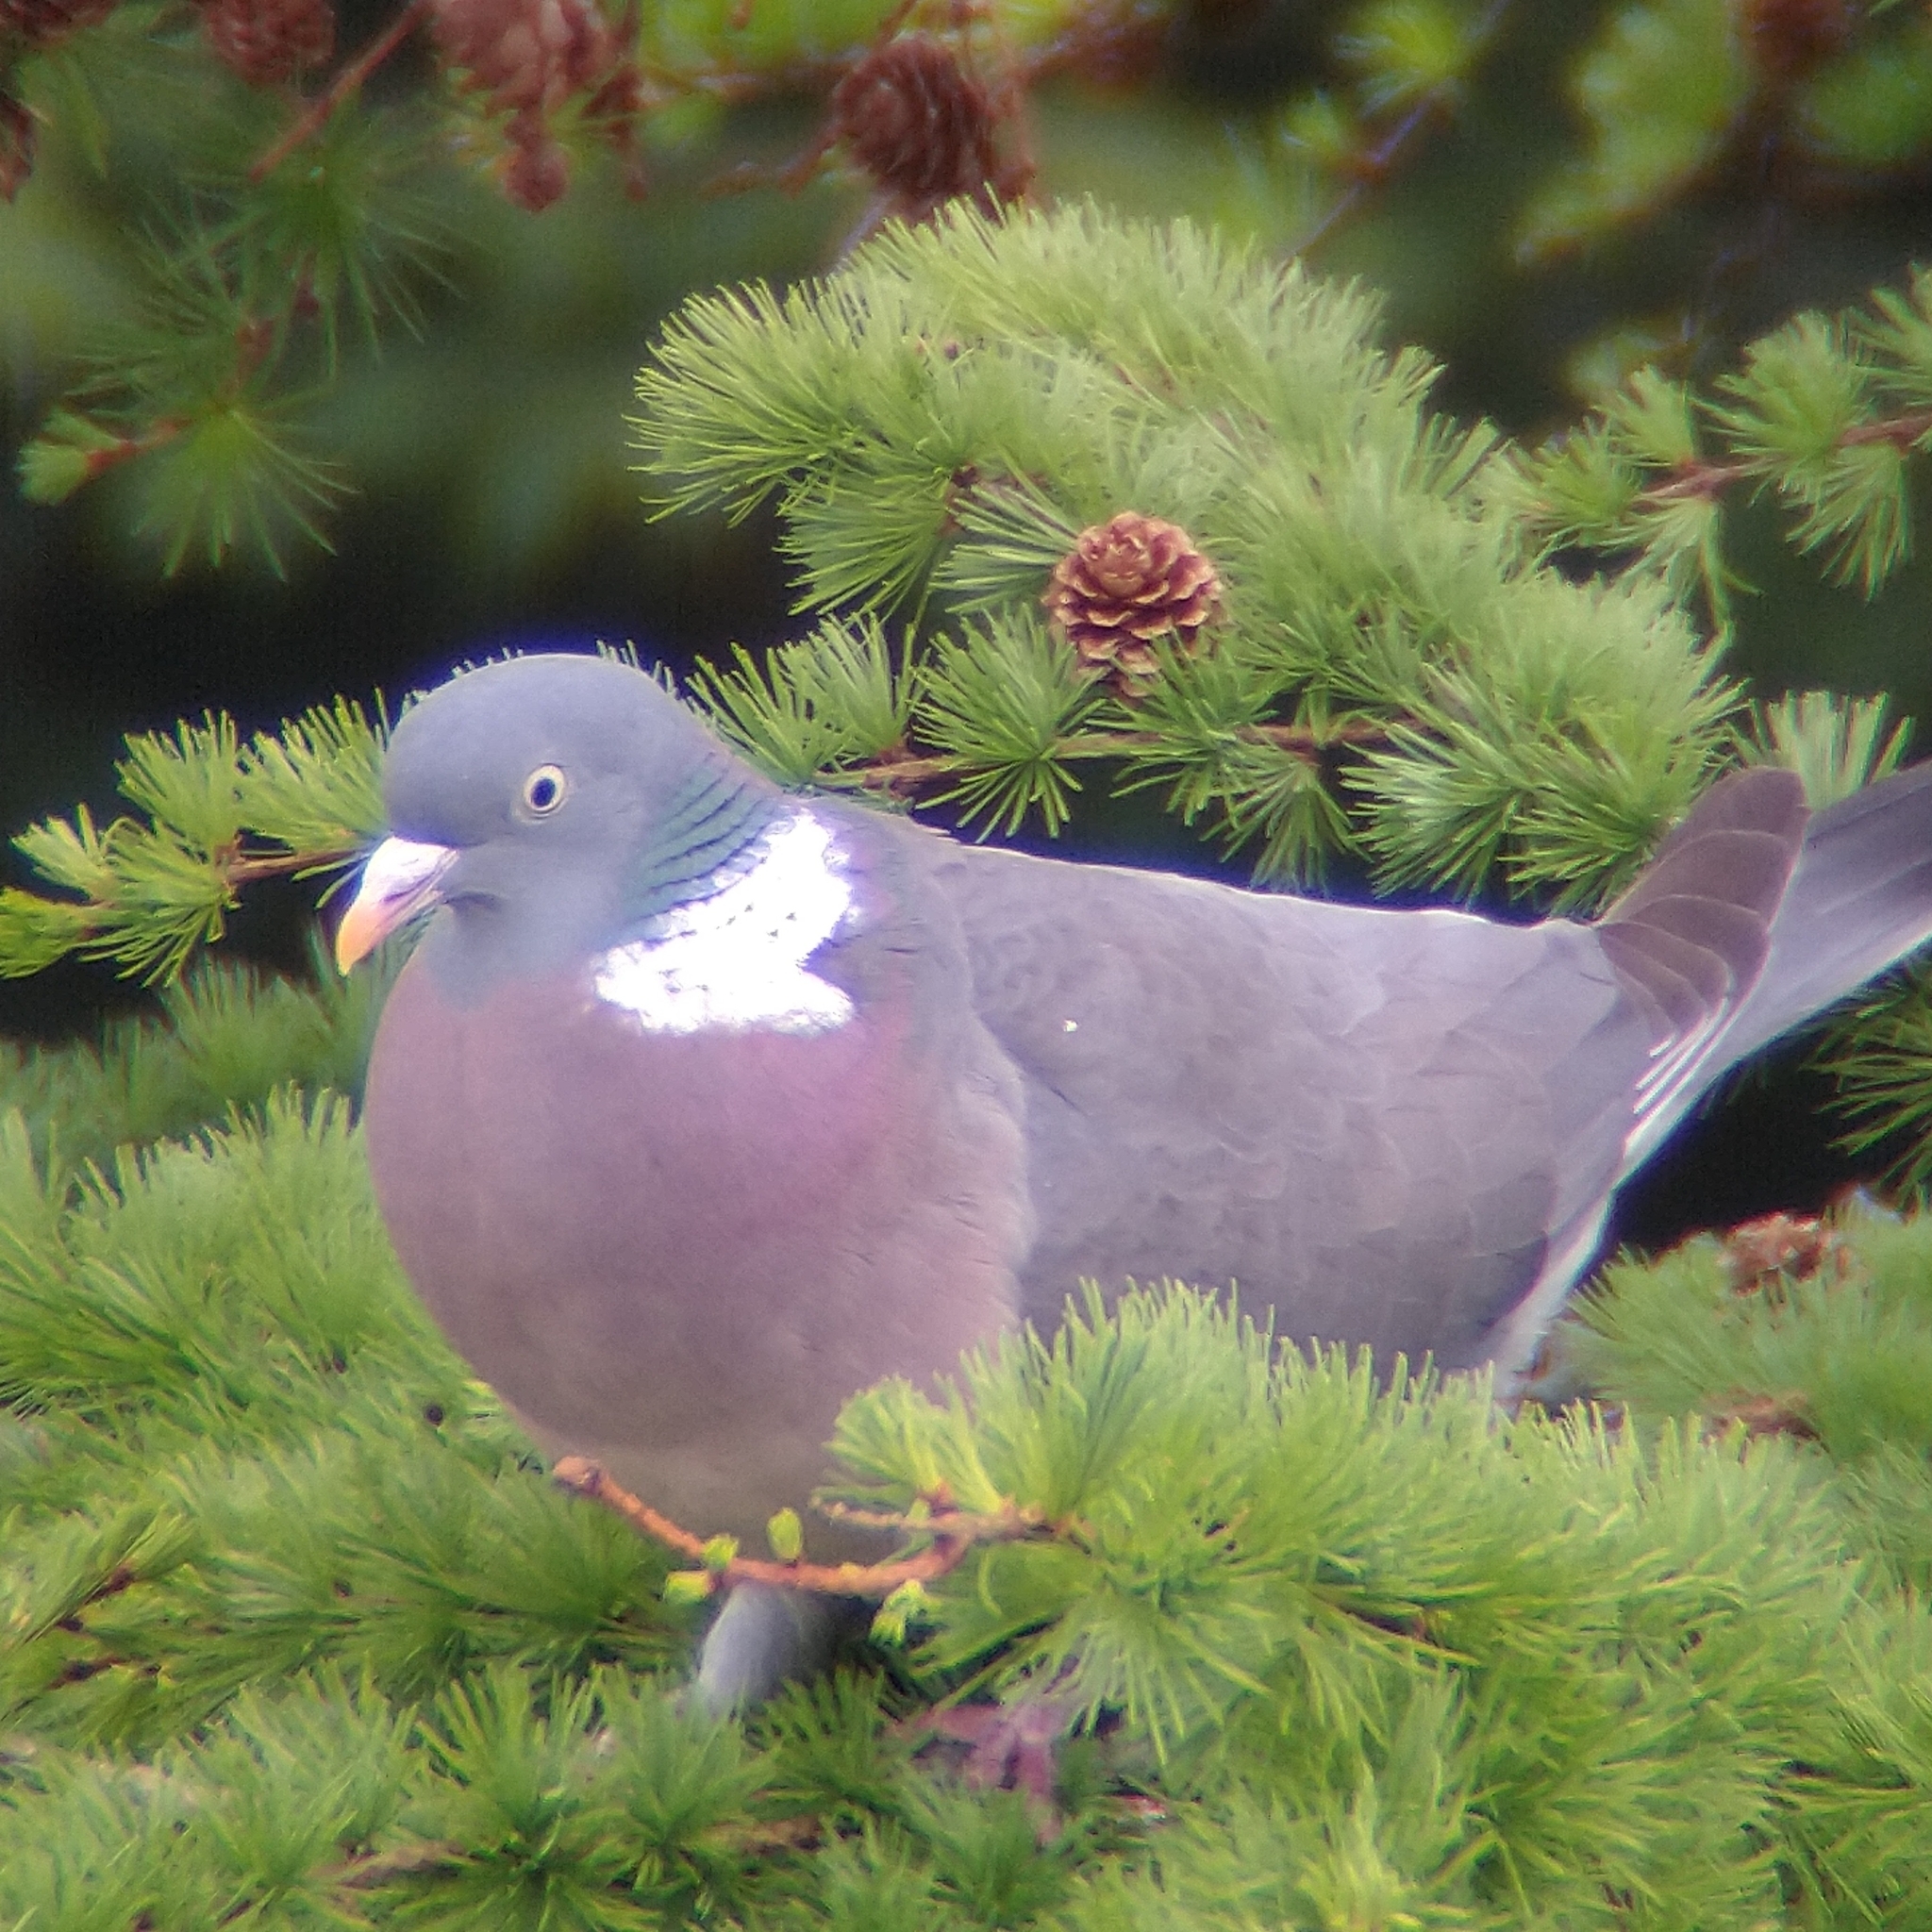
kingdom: Animalia
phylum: Chordata
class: Aves
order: Columbiformes
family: Columbidae
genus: Columba
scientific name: Columba palumbus
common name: Common wood pigeon
